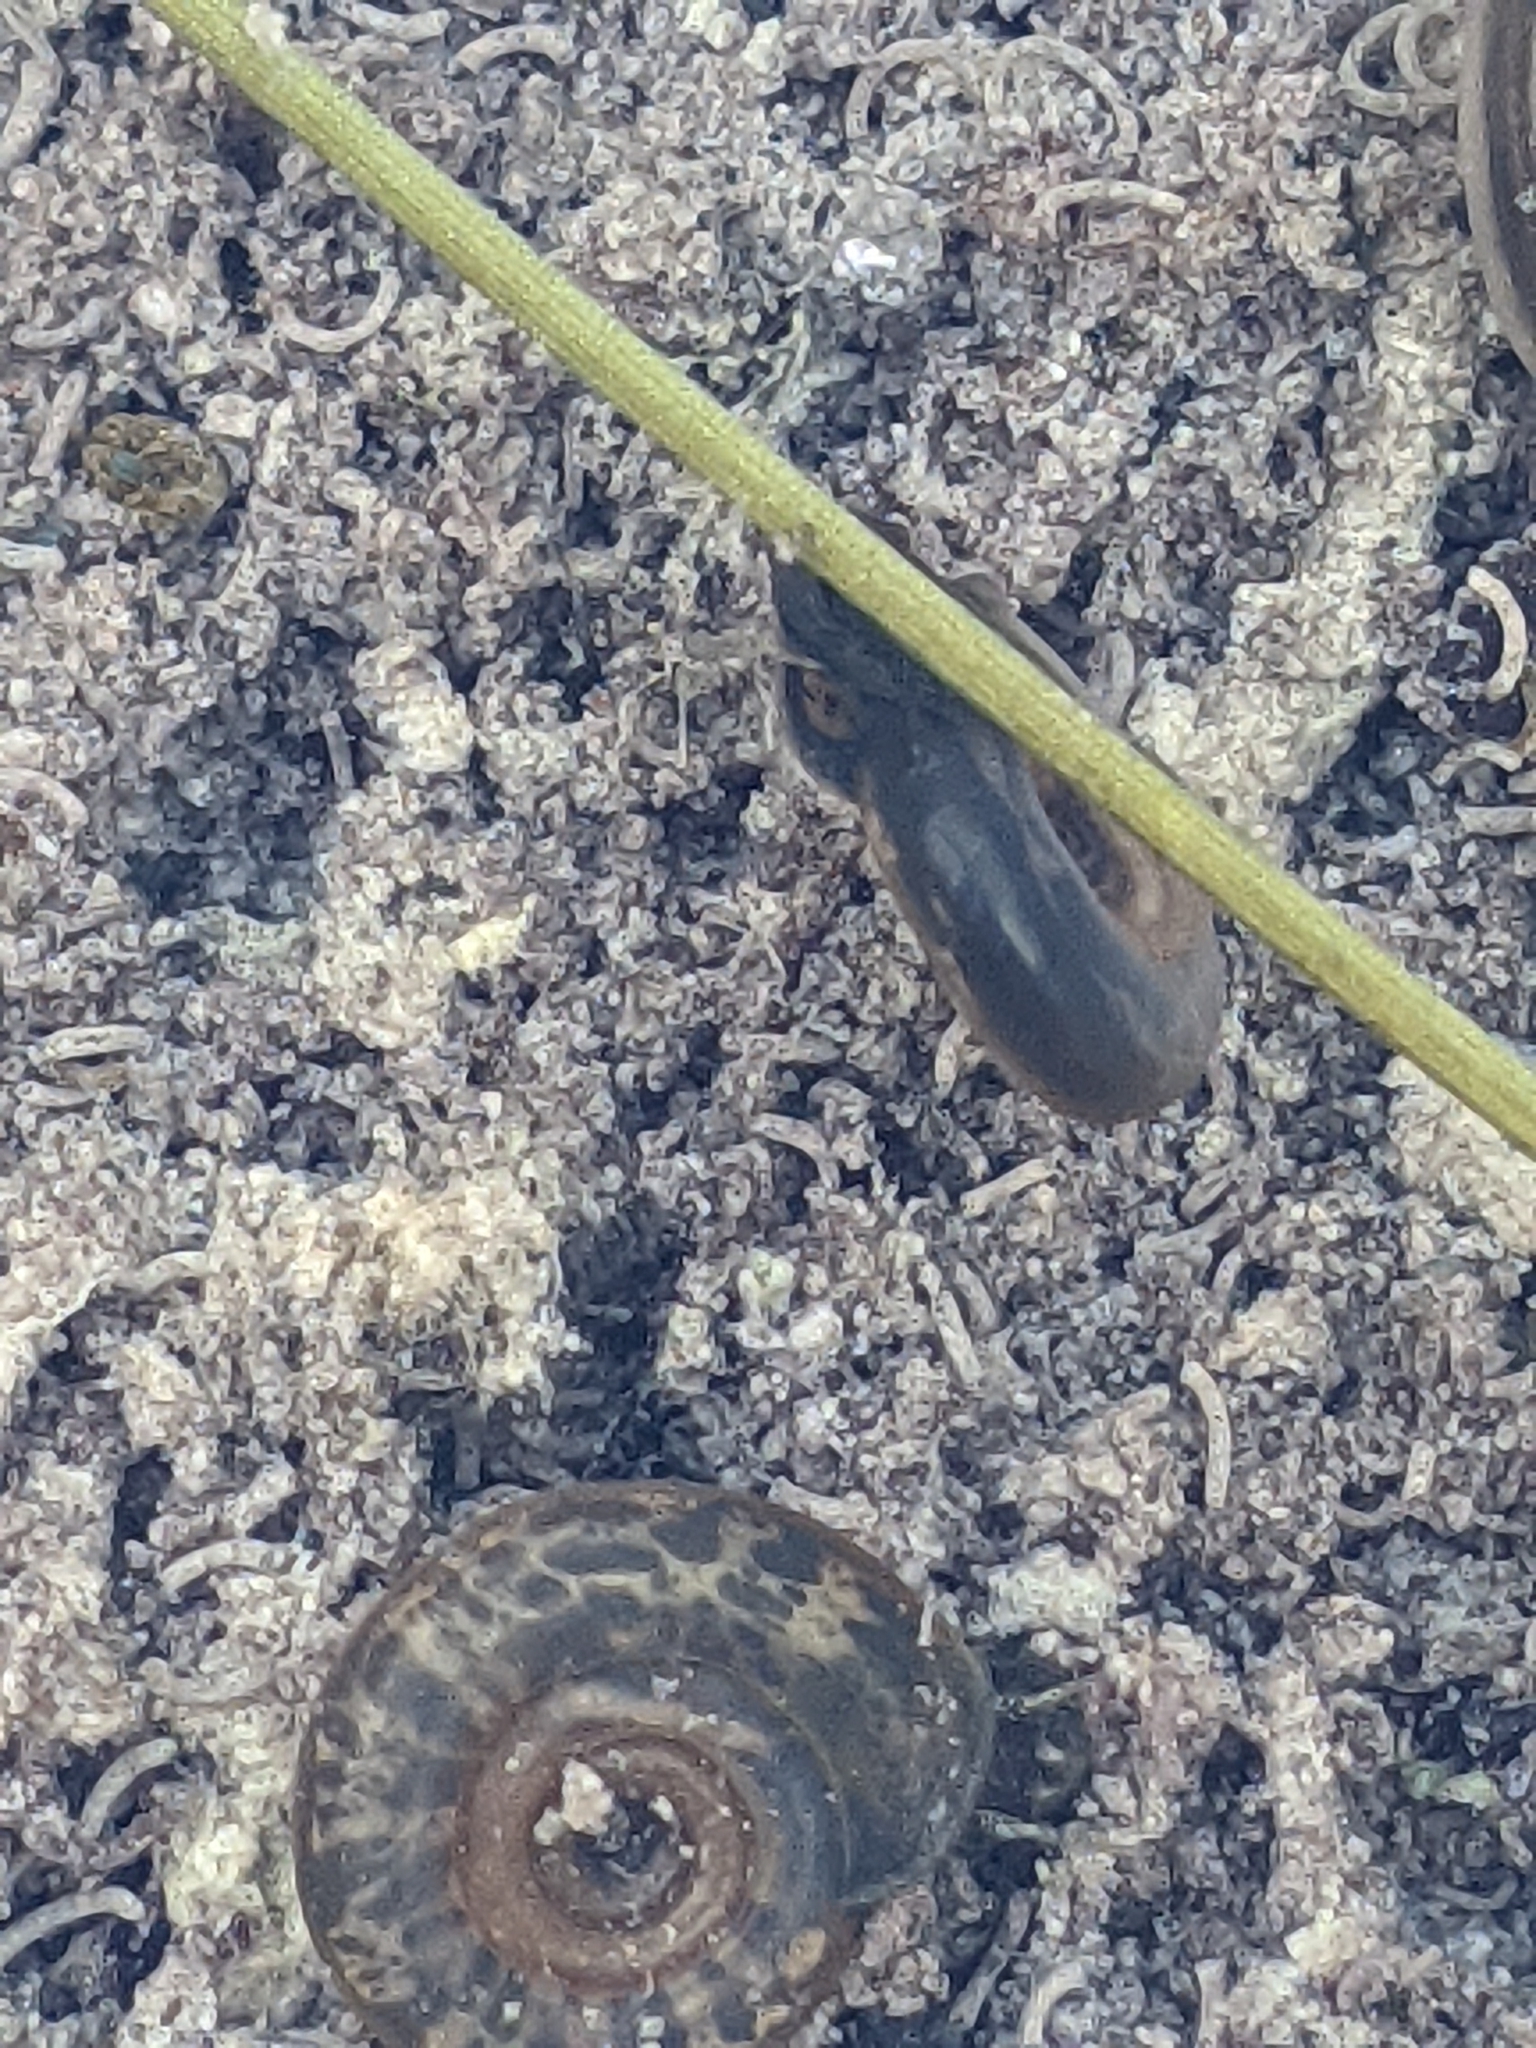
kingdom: Animalia
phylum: Mollusca
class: Gastropoda
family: Planorbidae
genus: Biomphalaria
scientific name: Biomphalaria obstructa
